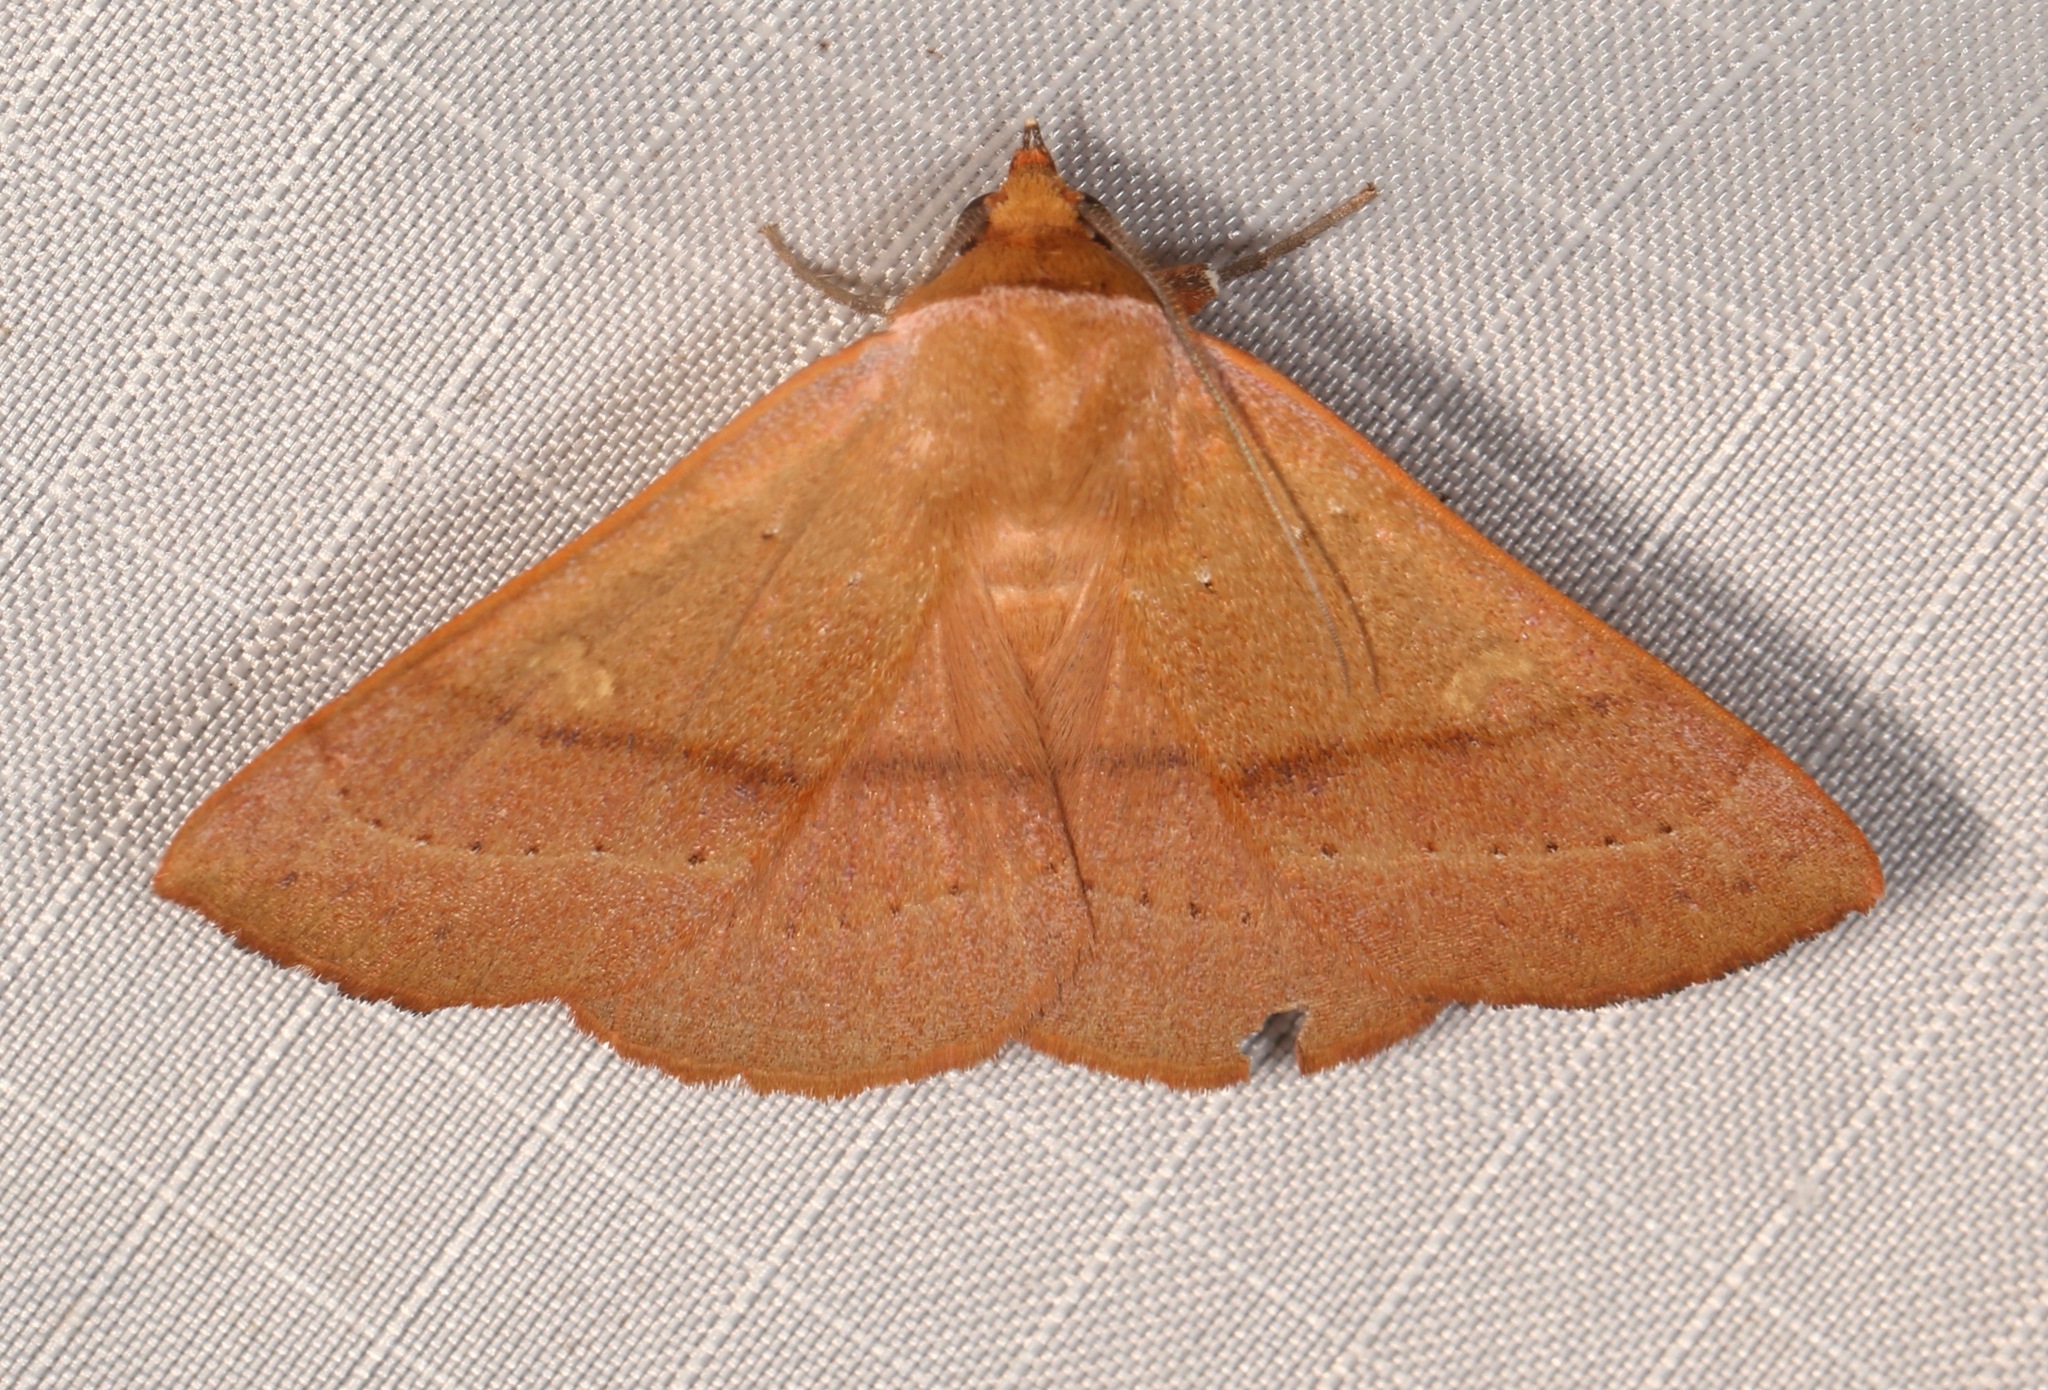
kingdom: Animalia
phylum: Arthropoda
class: Insecta
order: Lepidoptera
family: Erebidae
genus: Panopoda
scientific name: Panopoda repanda
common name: Orange panopoda
